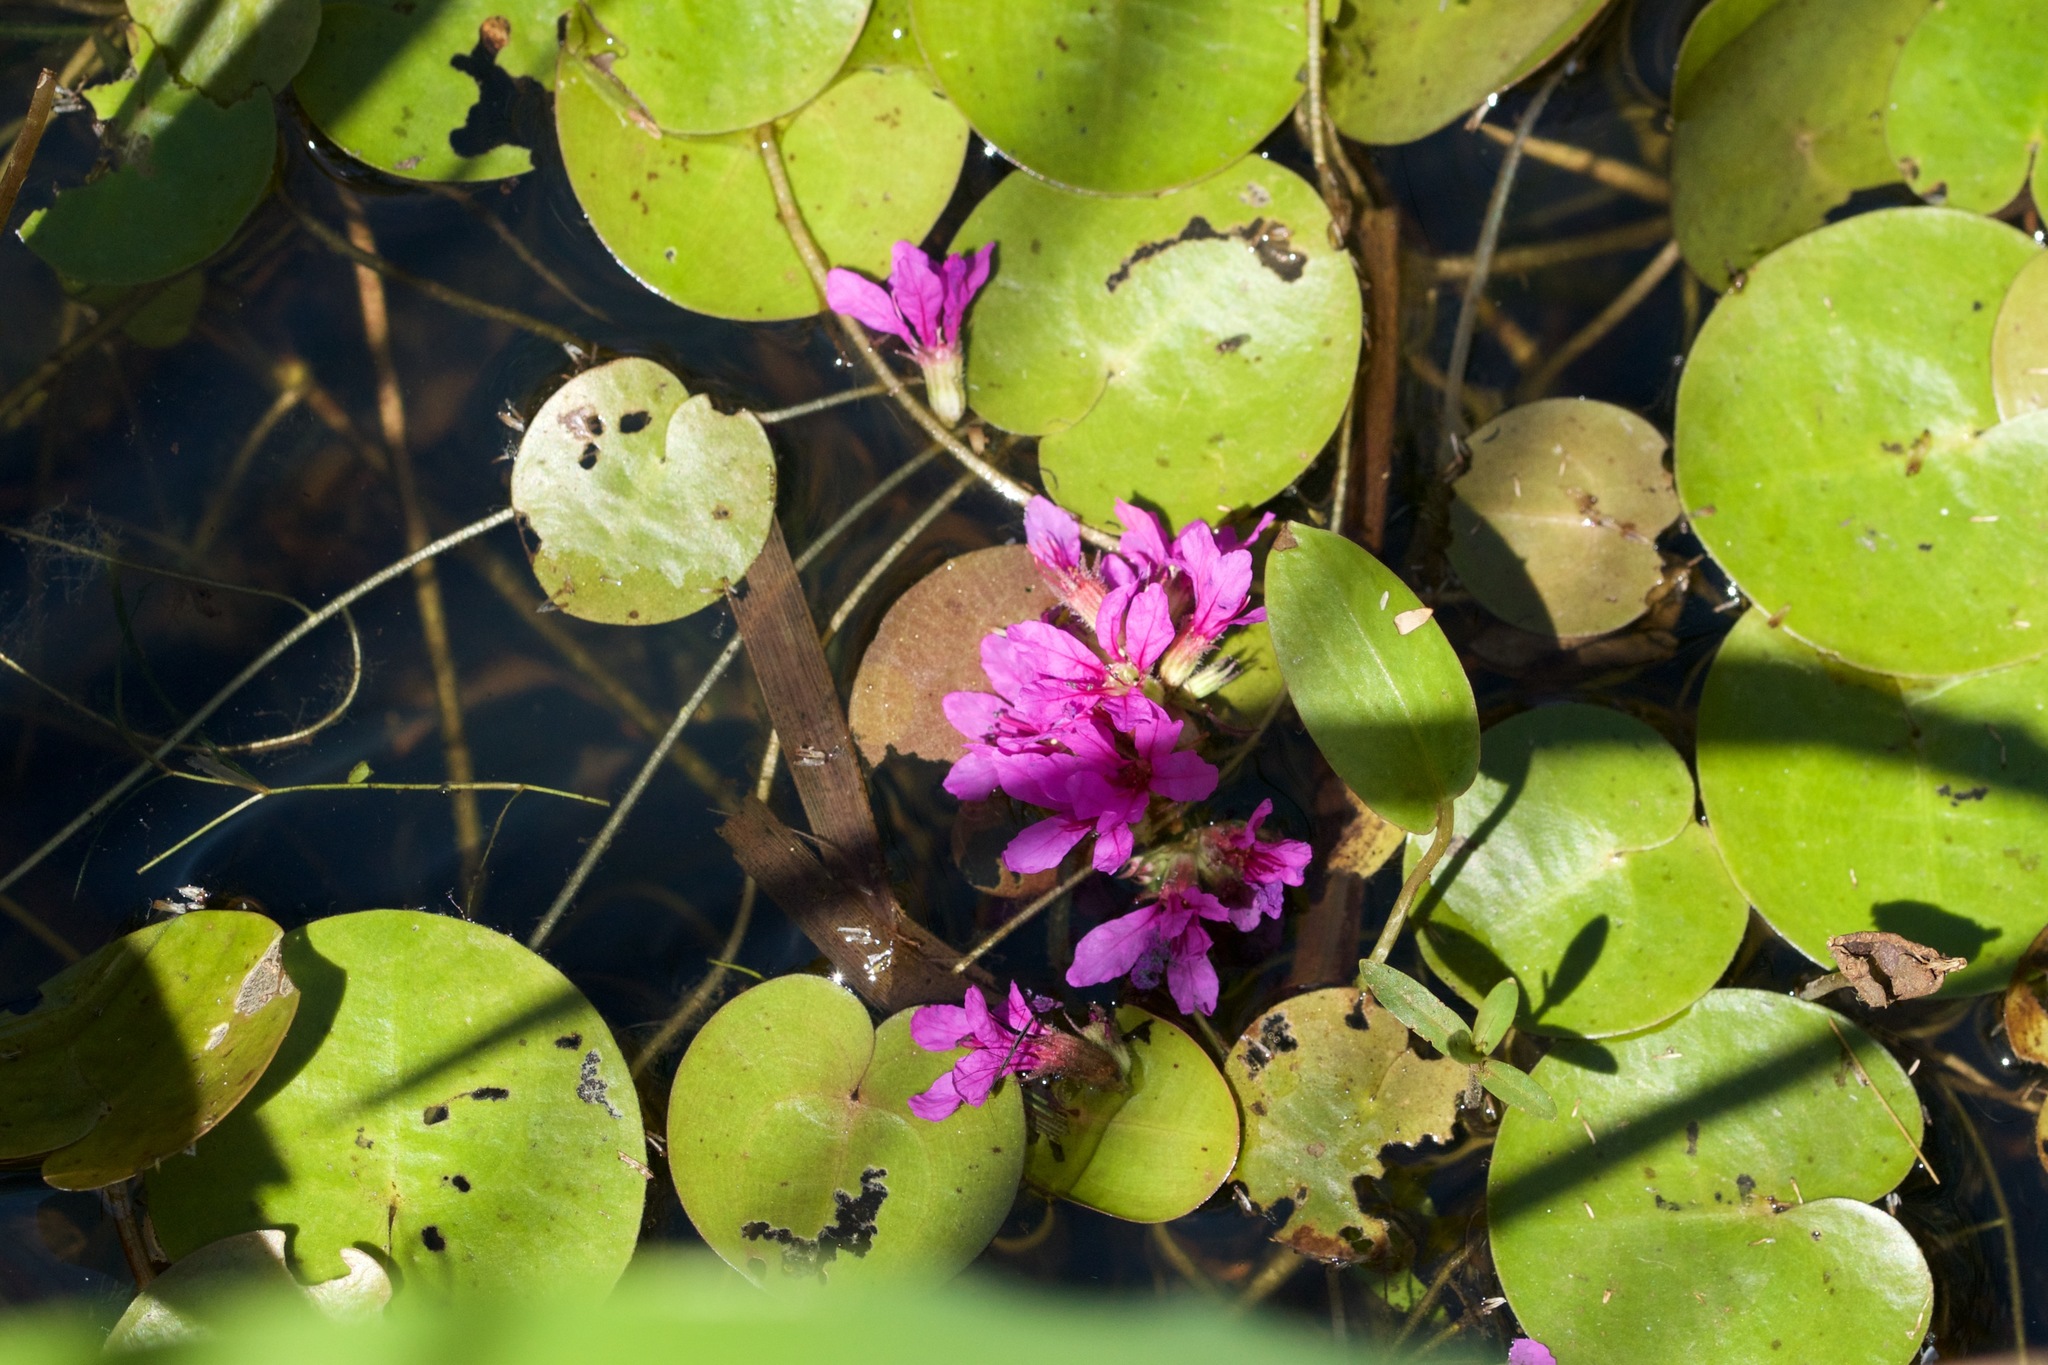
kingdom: Plantae
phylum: Tracheophyta
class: Liliopsida
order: Alismatales
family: Hydrocharitaceae
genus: Hydrocharis
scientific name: Hydrocharis morsus-ranae
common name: Frogbit
